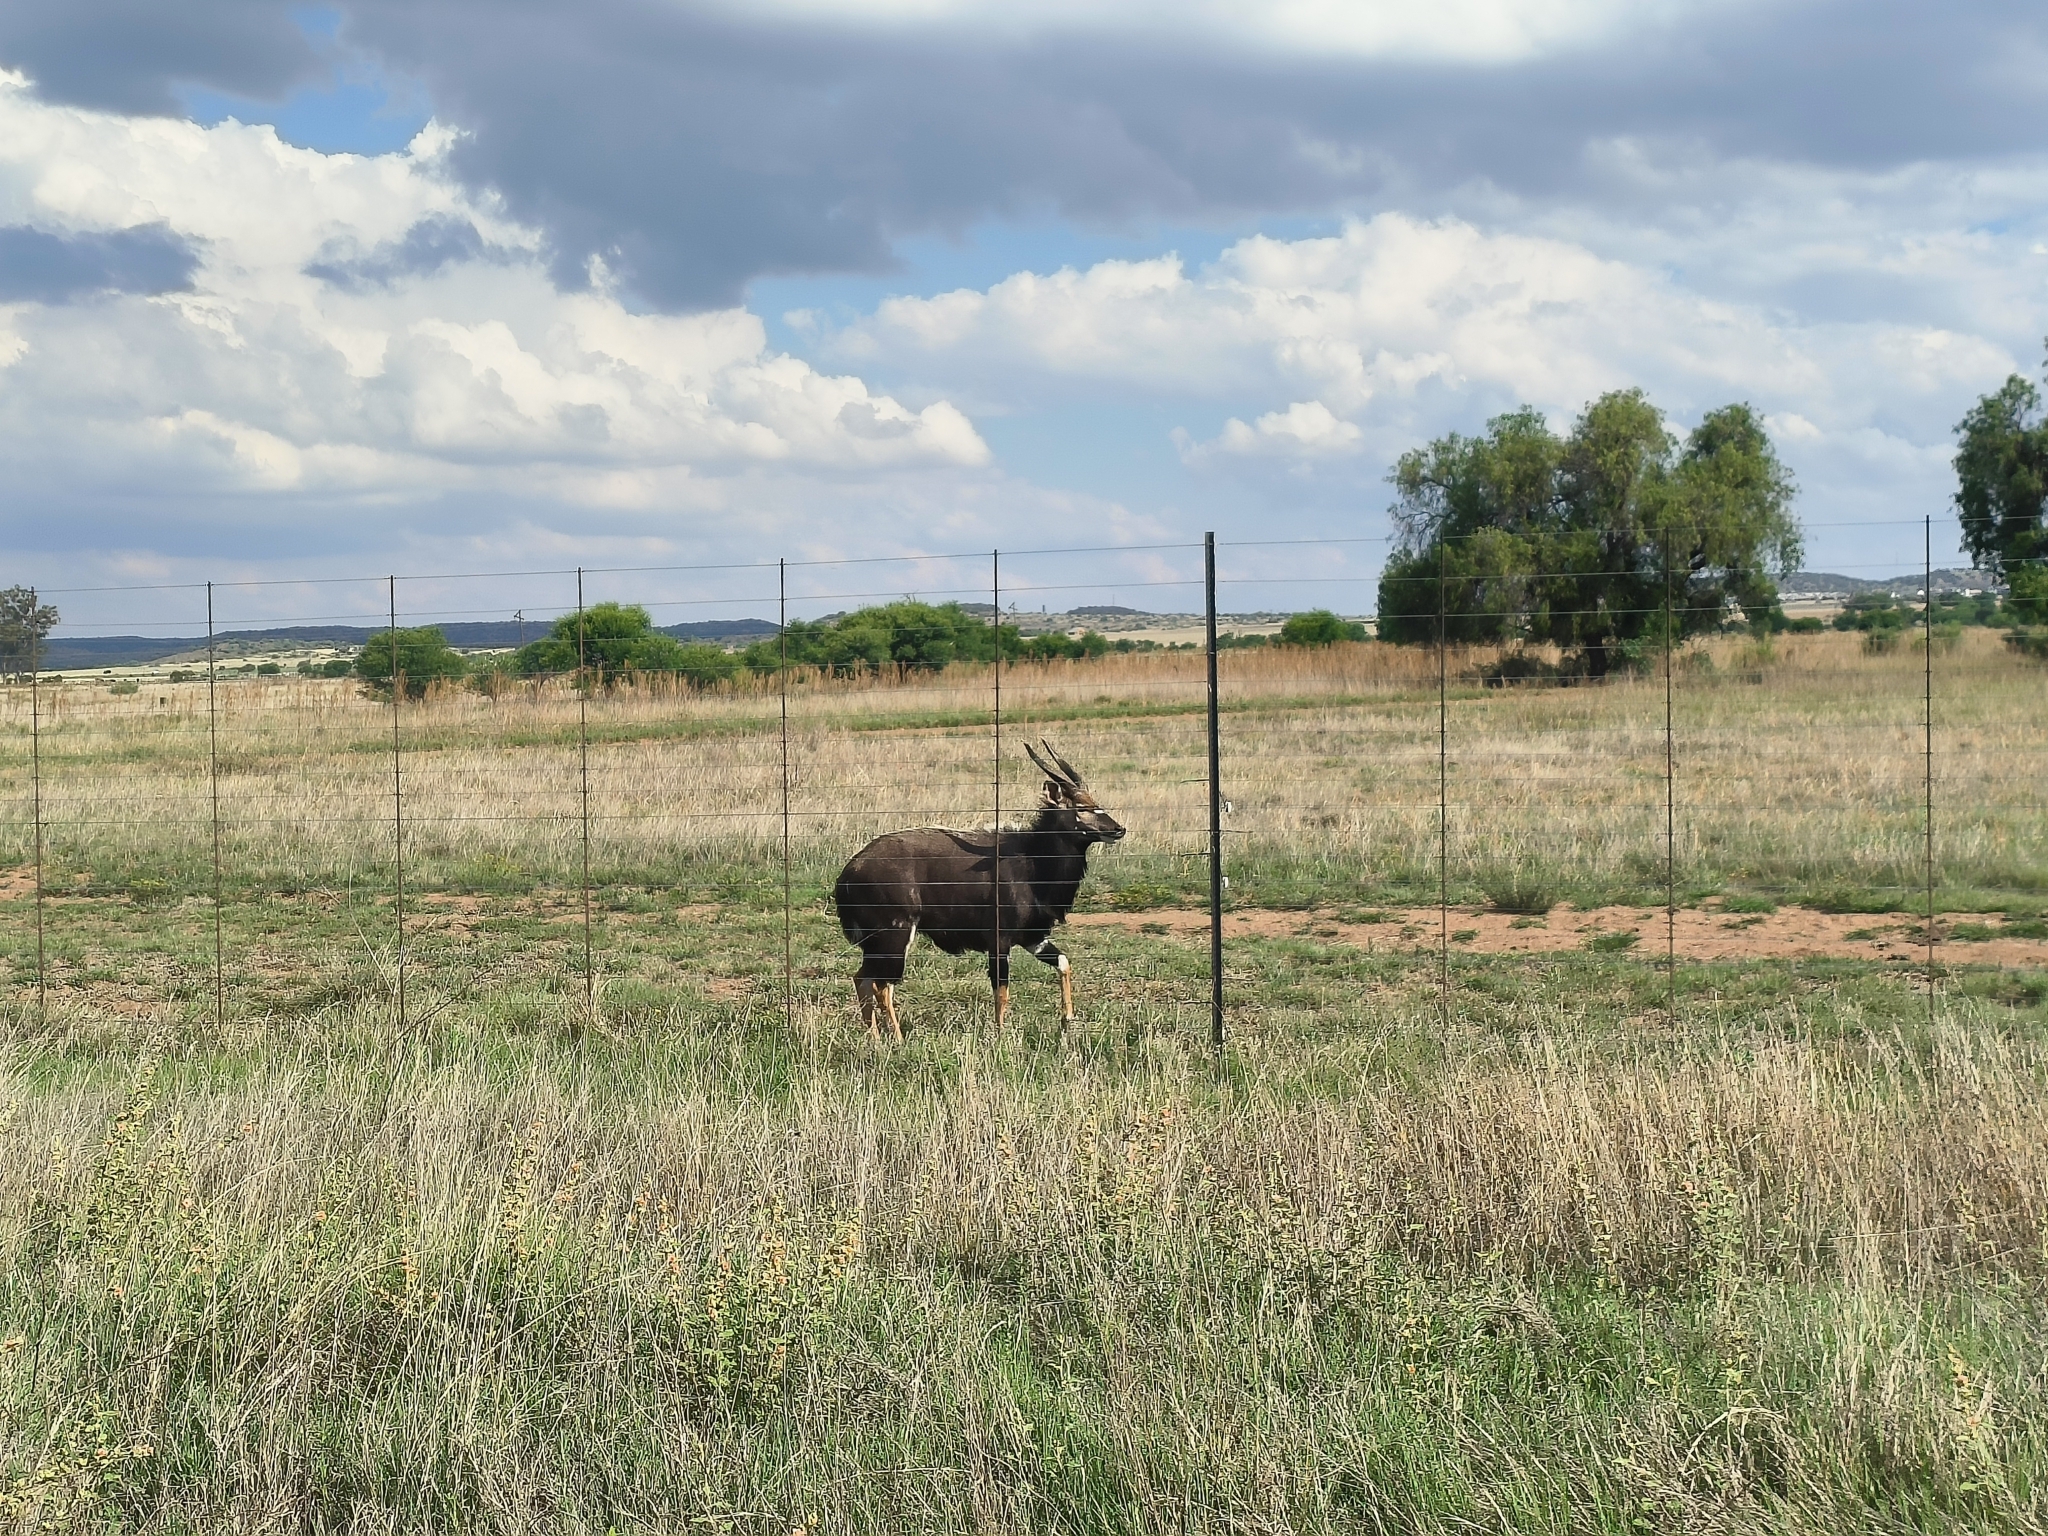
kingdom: Animalia
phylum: Chordata
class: Mammalia
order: Artiodactyla
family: Bovidae
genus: Tragelaphus
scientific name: Tragelaphus angasii
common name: Nyala
